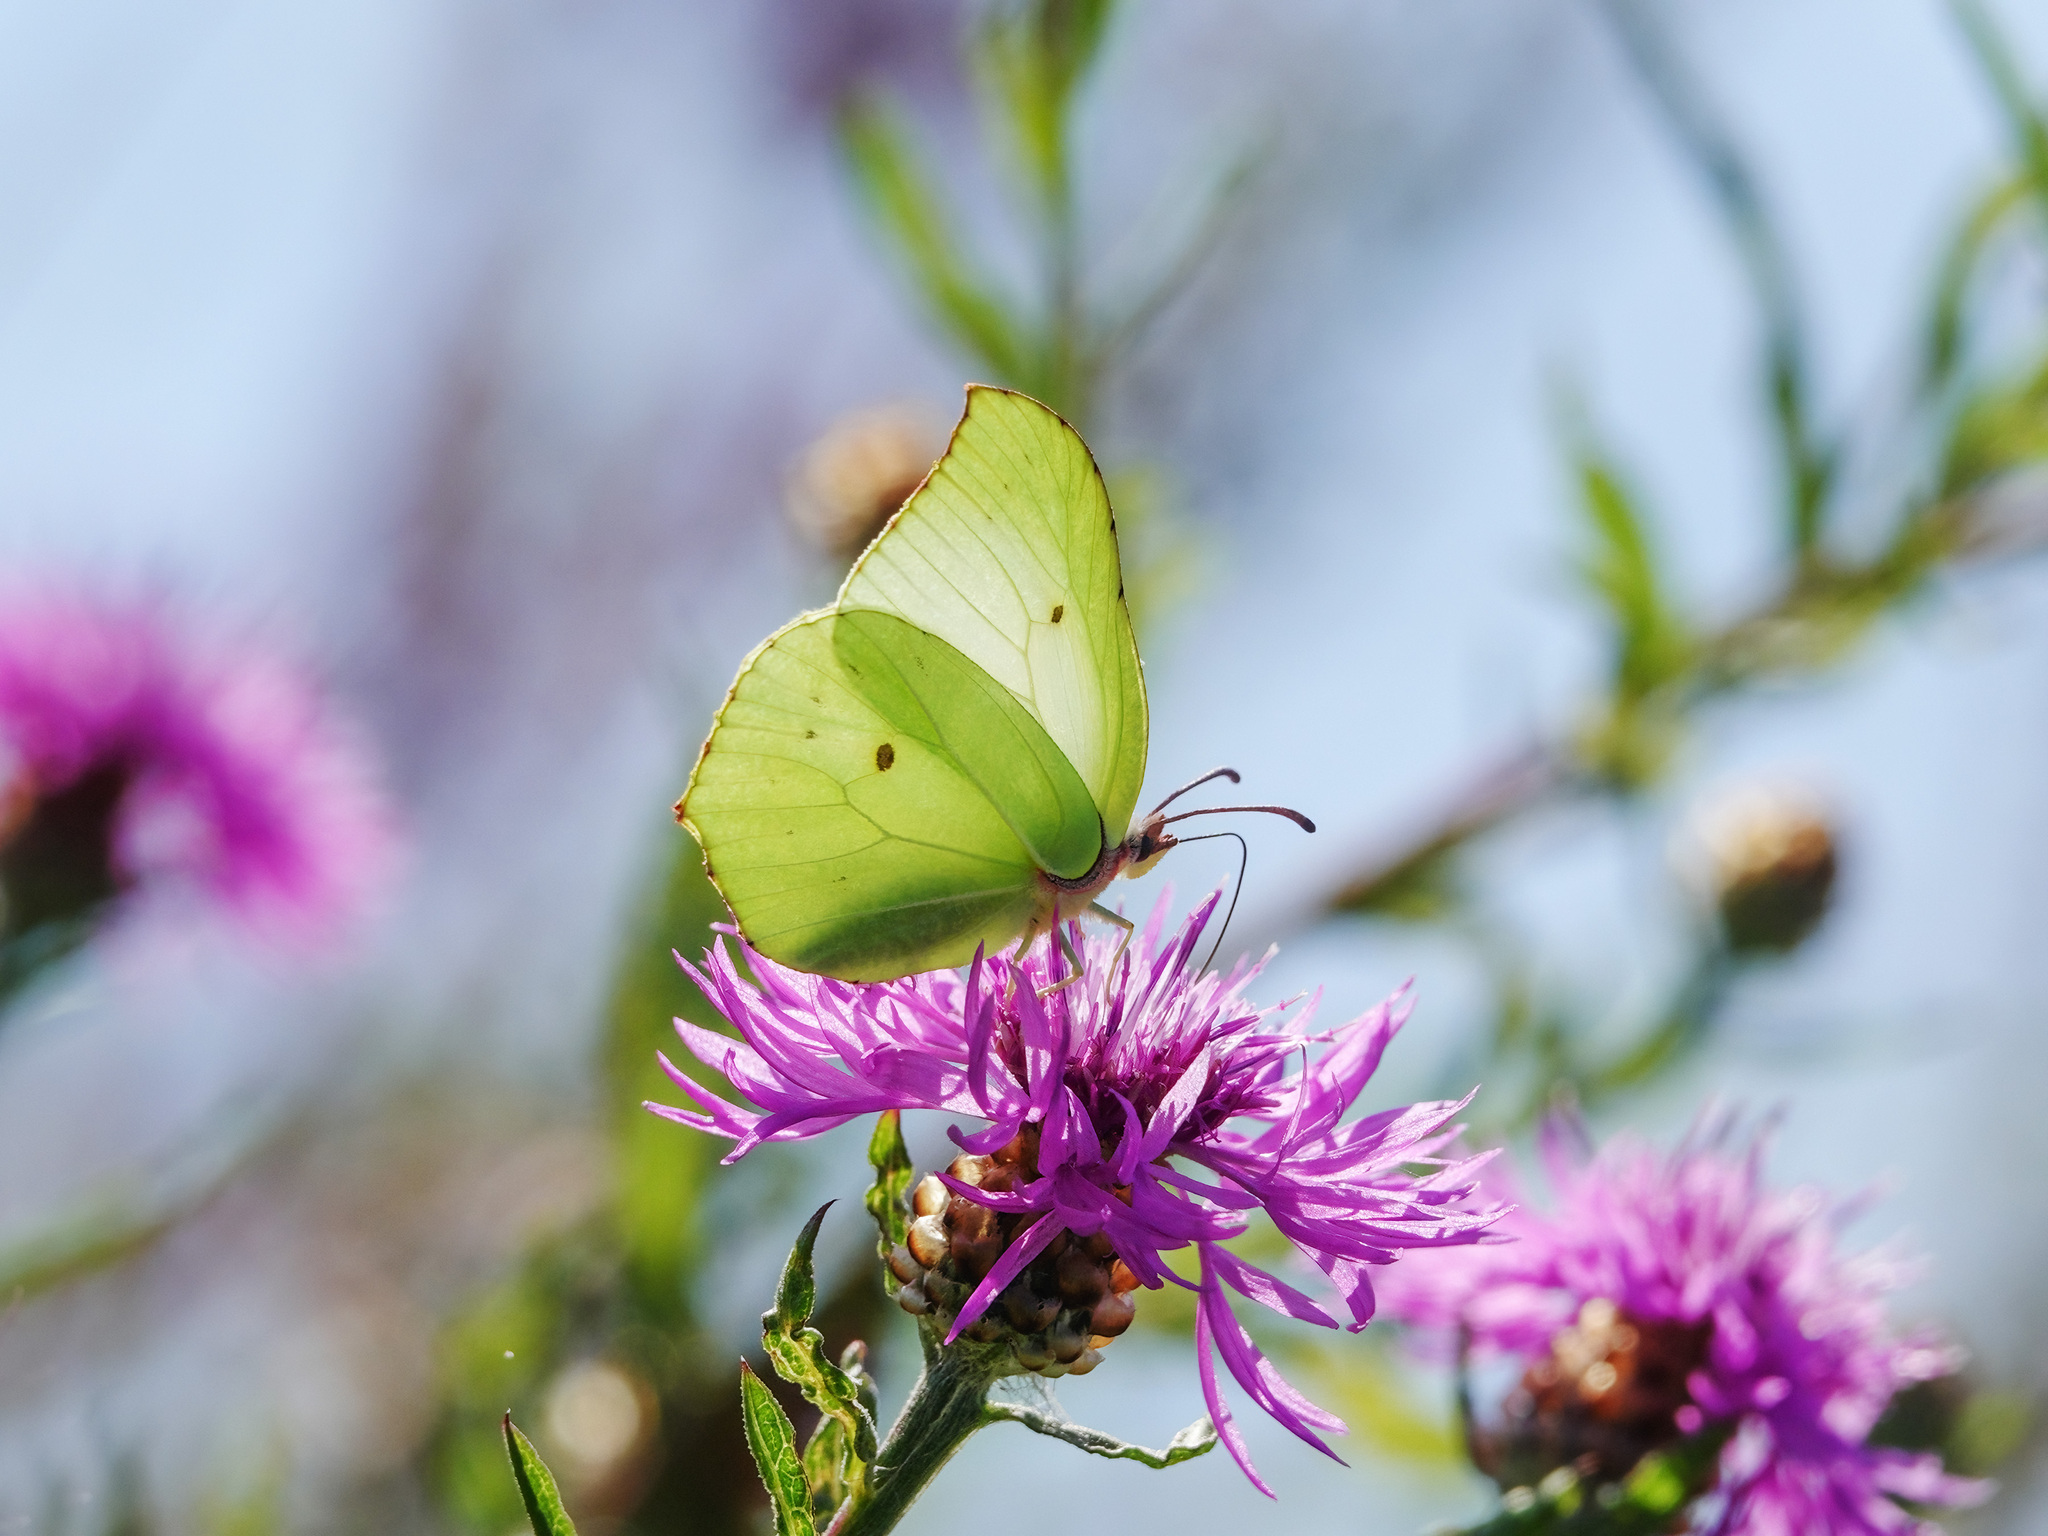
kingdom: Animalia
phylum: Arthropoda
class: Insecta
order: Lepidoptera
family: Pieridae
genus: Gonepteryx
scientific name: Gonepteryx rhamni
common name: Brimstone
